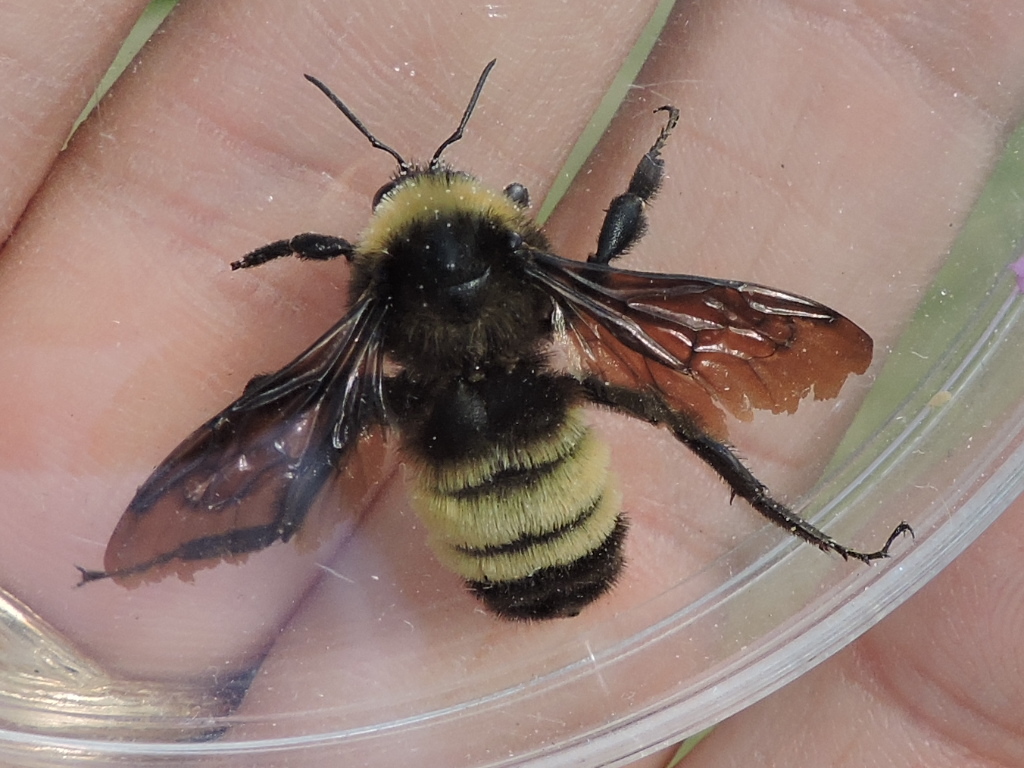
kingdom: Animalia
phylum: Arthropoda
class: Insecta
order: Hymenoptera
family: Apidae
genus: Bombus
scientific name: Bombus pensylvanicus
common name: Bumble bee
